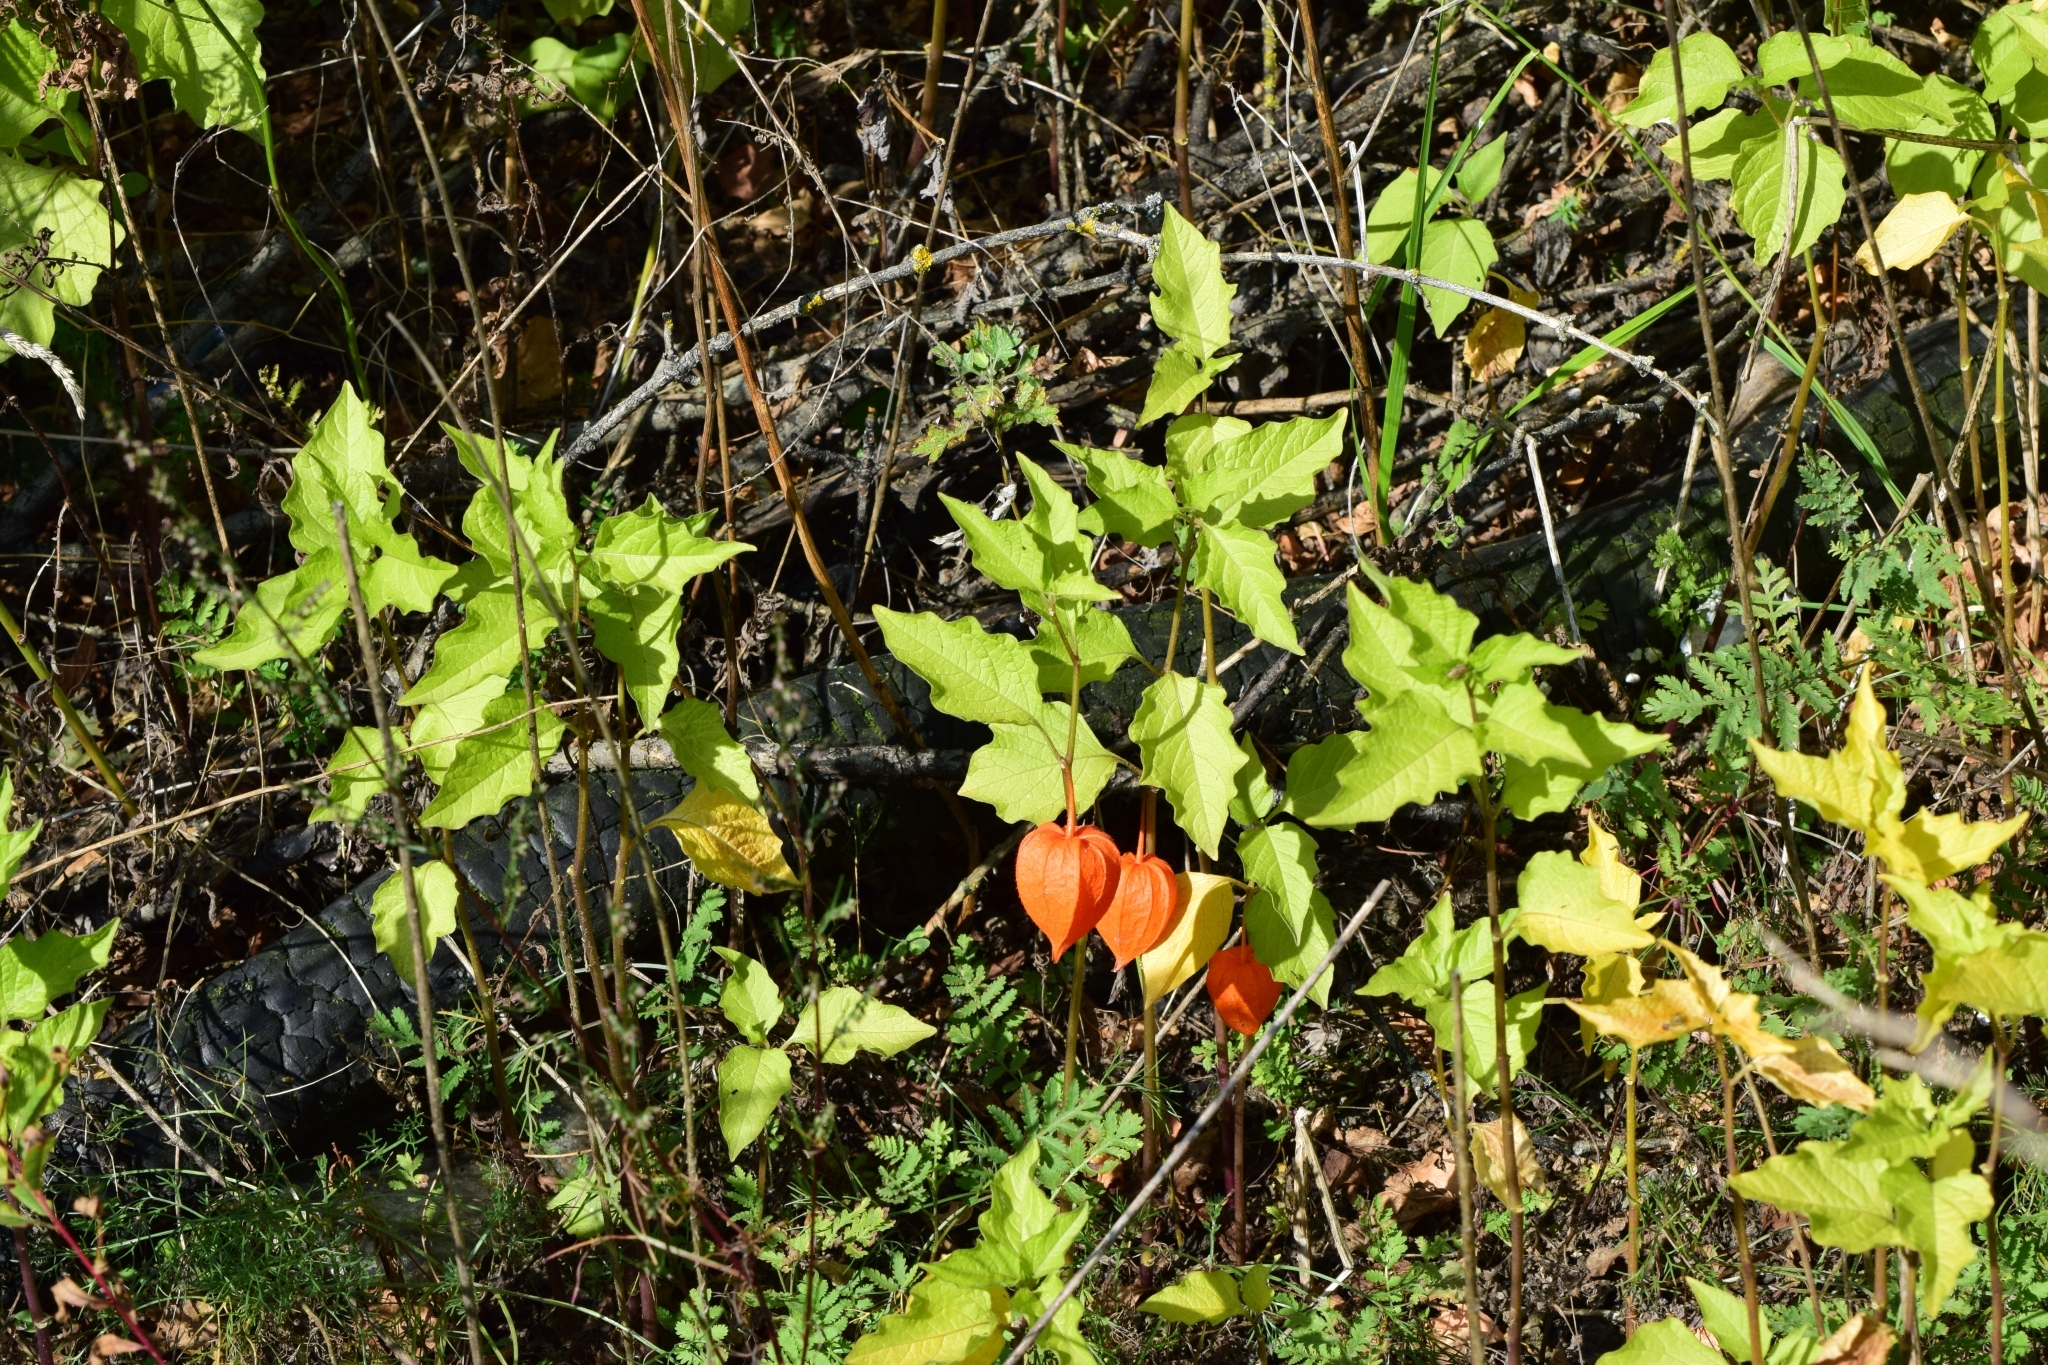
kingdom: Plantae
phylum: Tracheophyta
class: Magnoliopsida
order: Solanales
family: Solanaceae
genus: Alkekengi
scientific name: Alkekengi officinarum
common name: Japanese-lantern
